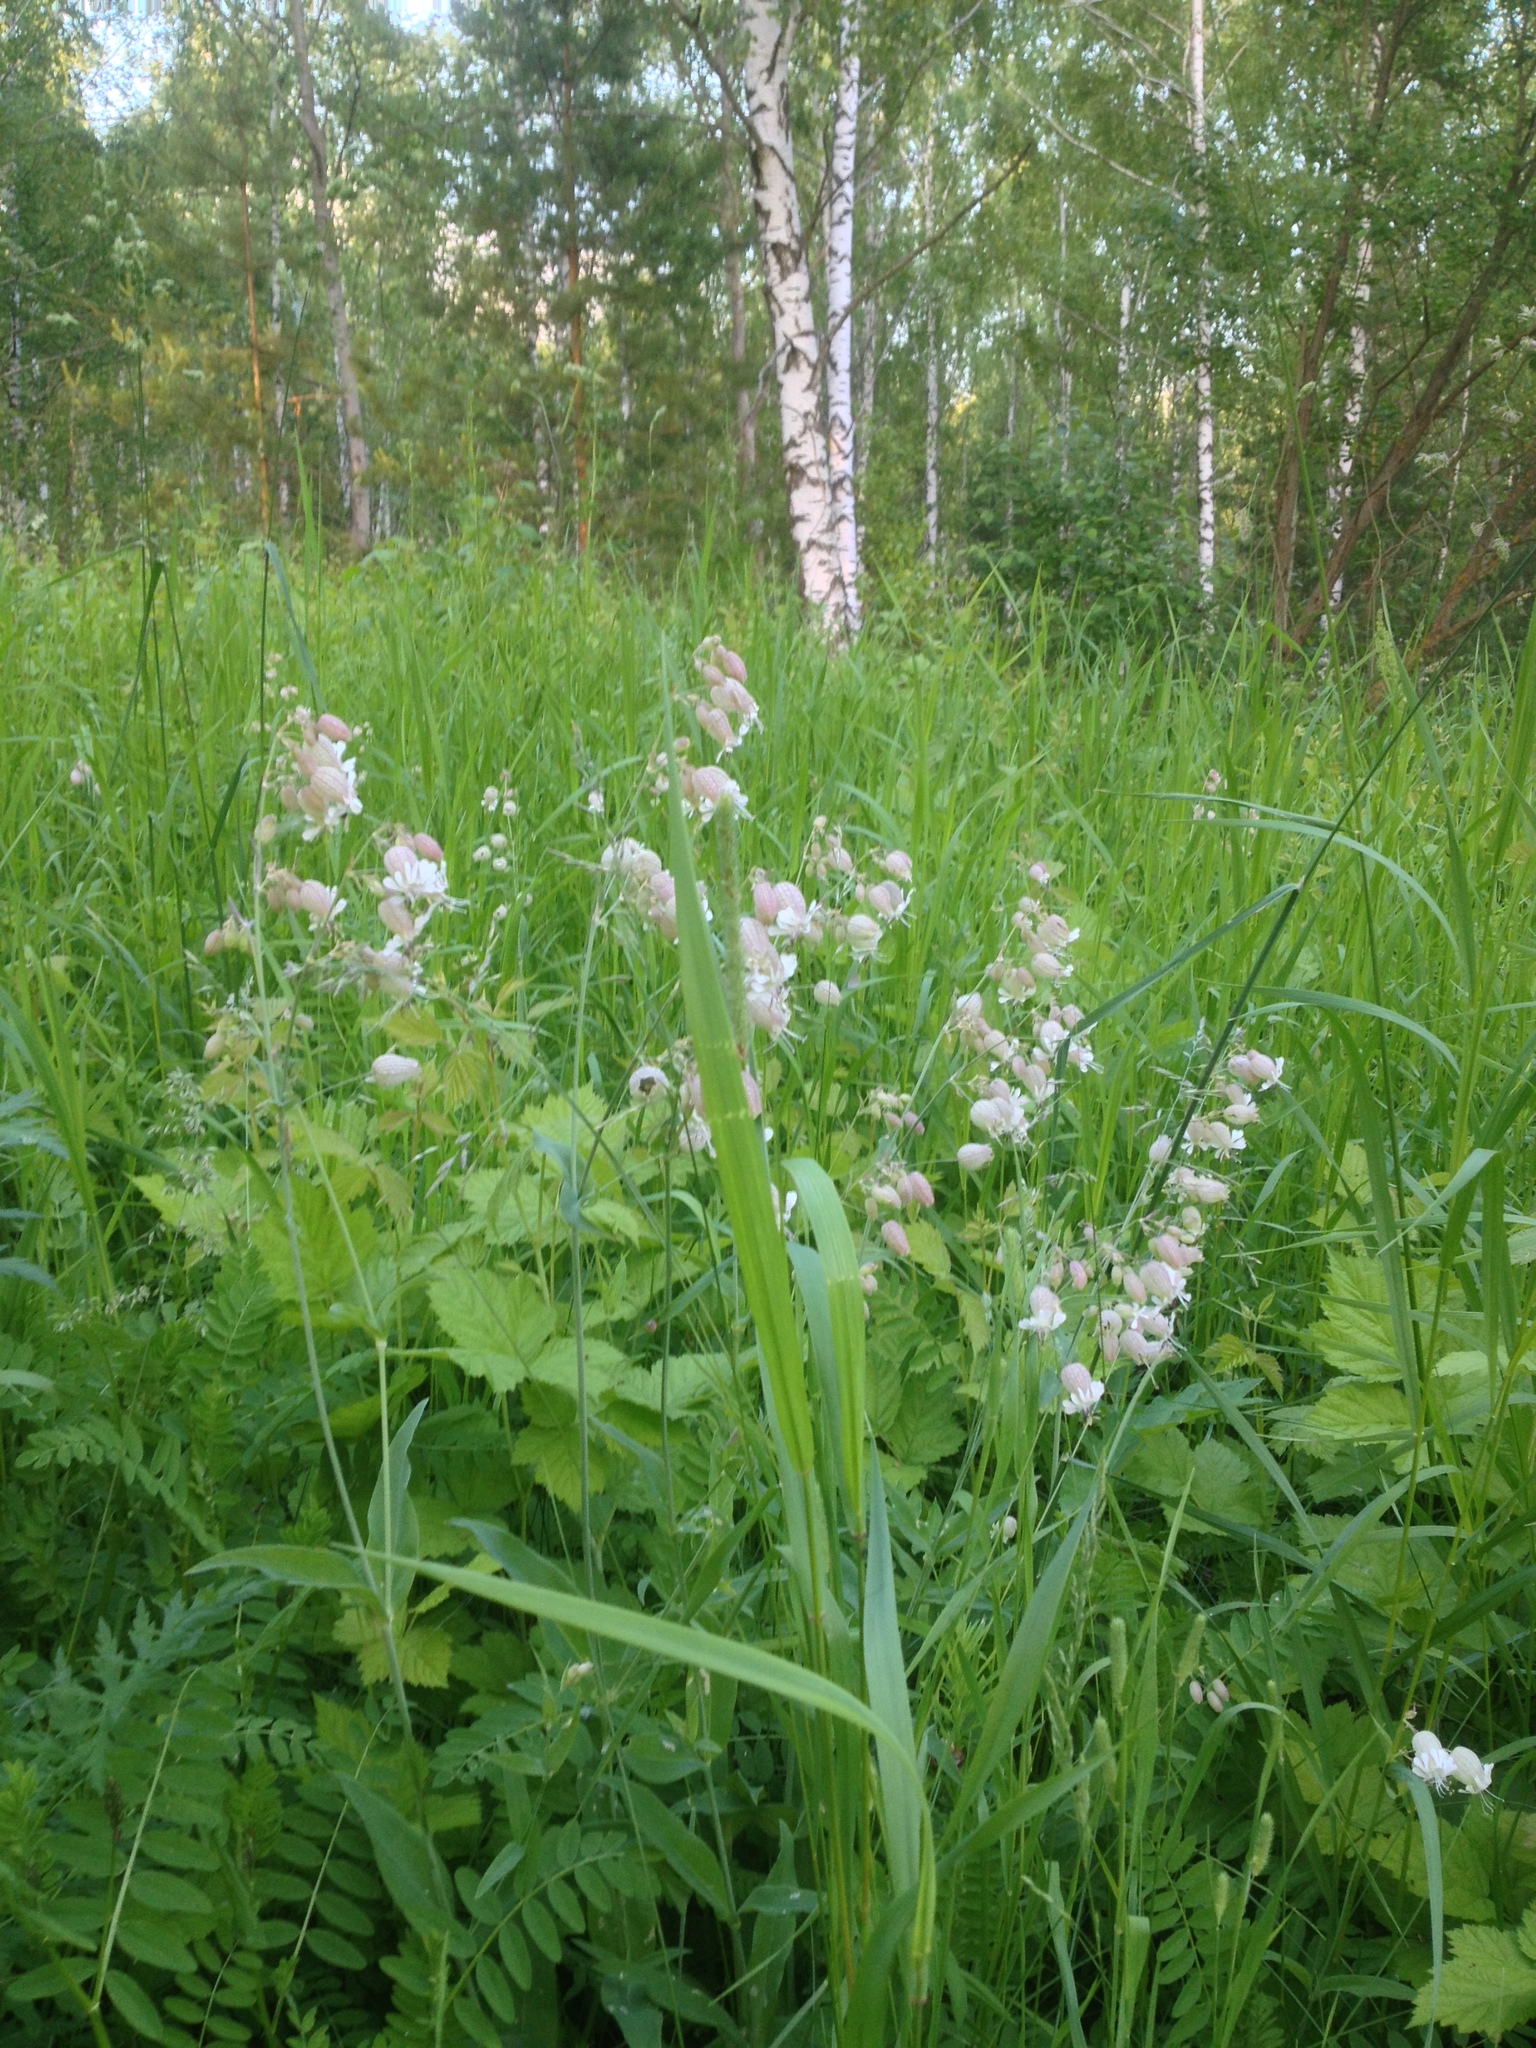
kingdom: Plantae
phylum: Tracheophyta
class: Magnoliopsida
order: Caryophyllales
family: Caryophyllaceae
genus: Silene
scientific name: Silene vulgaris
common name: Bladder campion
